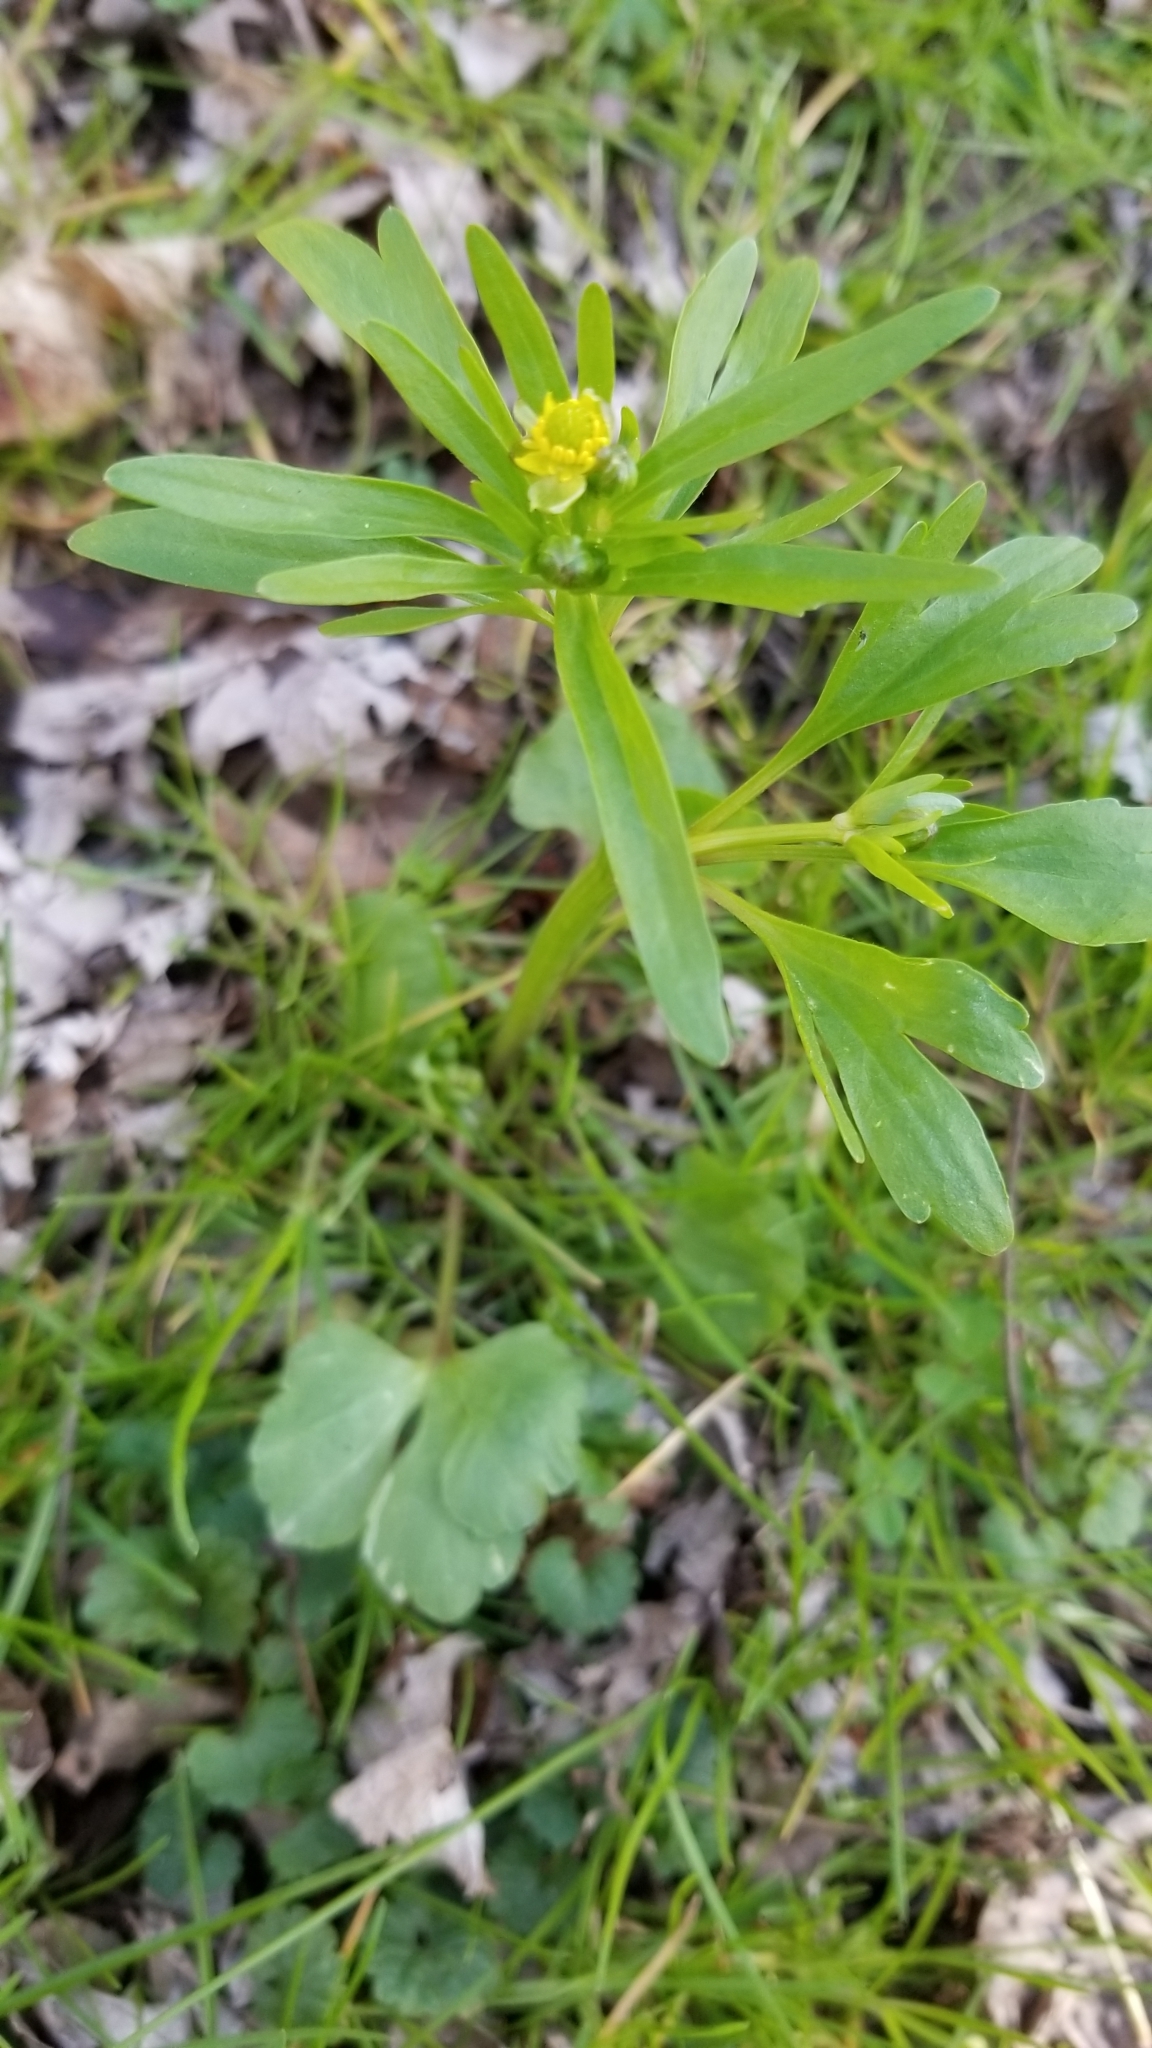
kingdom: Plantae
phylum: Tracheophyta
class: Magnoliopsida
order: Ranunculales
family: Ranunculaceae
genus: Ranunculus
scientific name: Ranunculus abortivus
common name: Early wood buttercup
